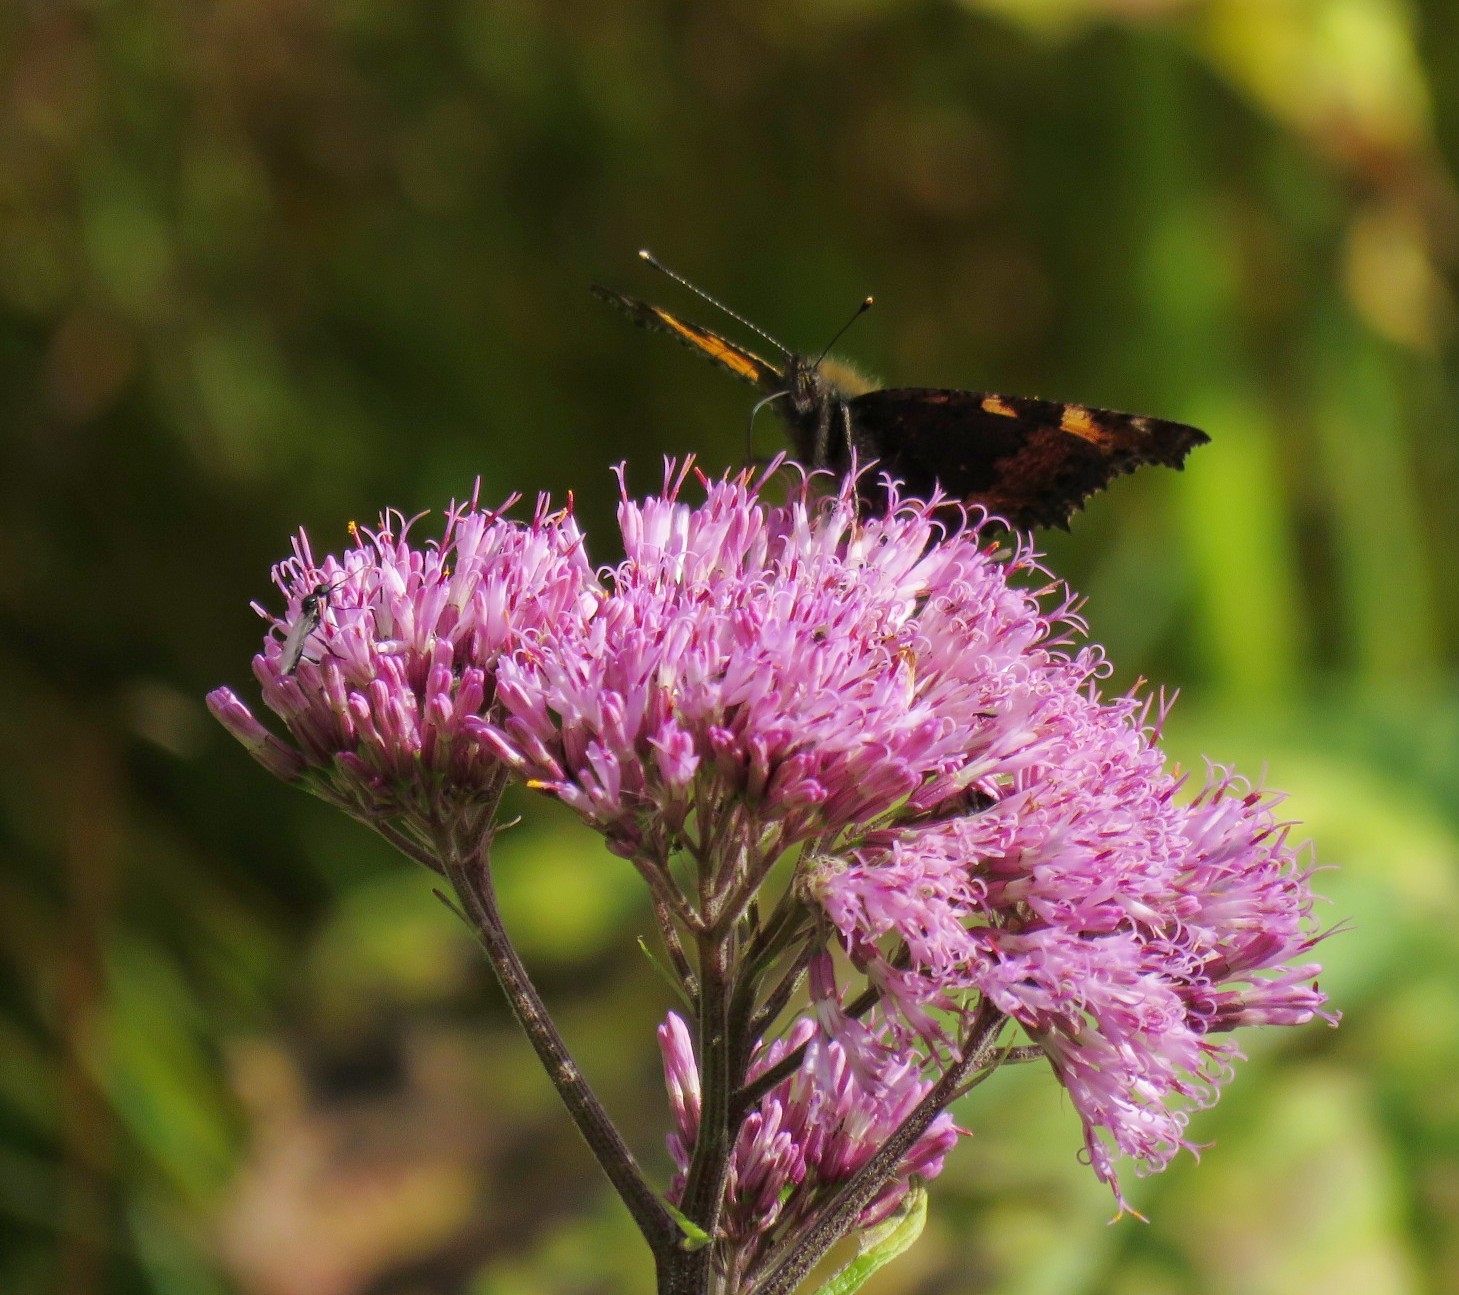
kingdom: Animalia
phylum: Arthropoda
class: Insecta
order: Lepidoptera
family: Nymphalidae
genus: Aglais
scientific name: Aglais urticae
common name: Small tortoiseshell
